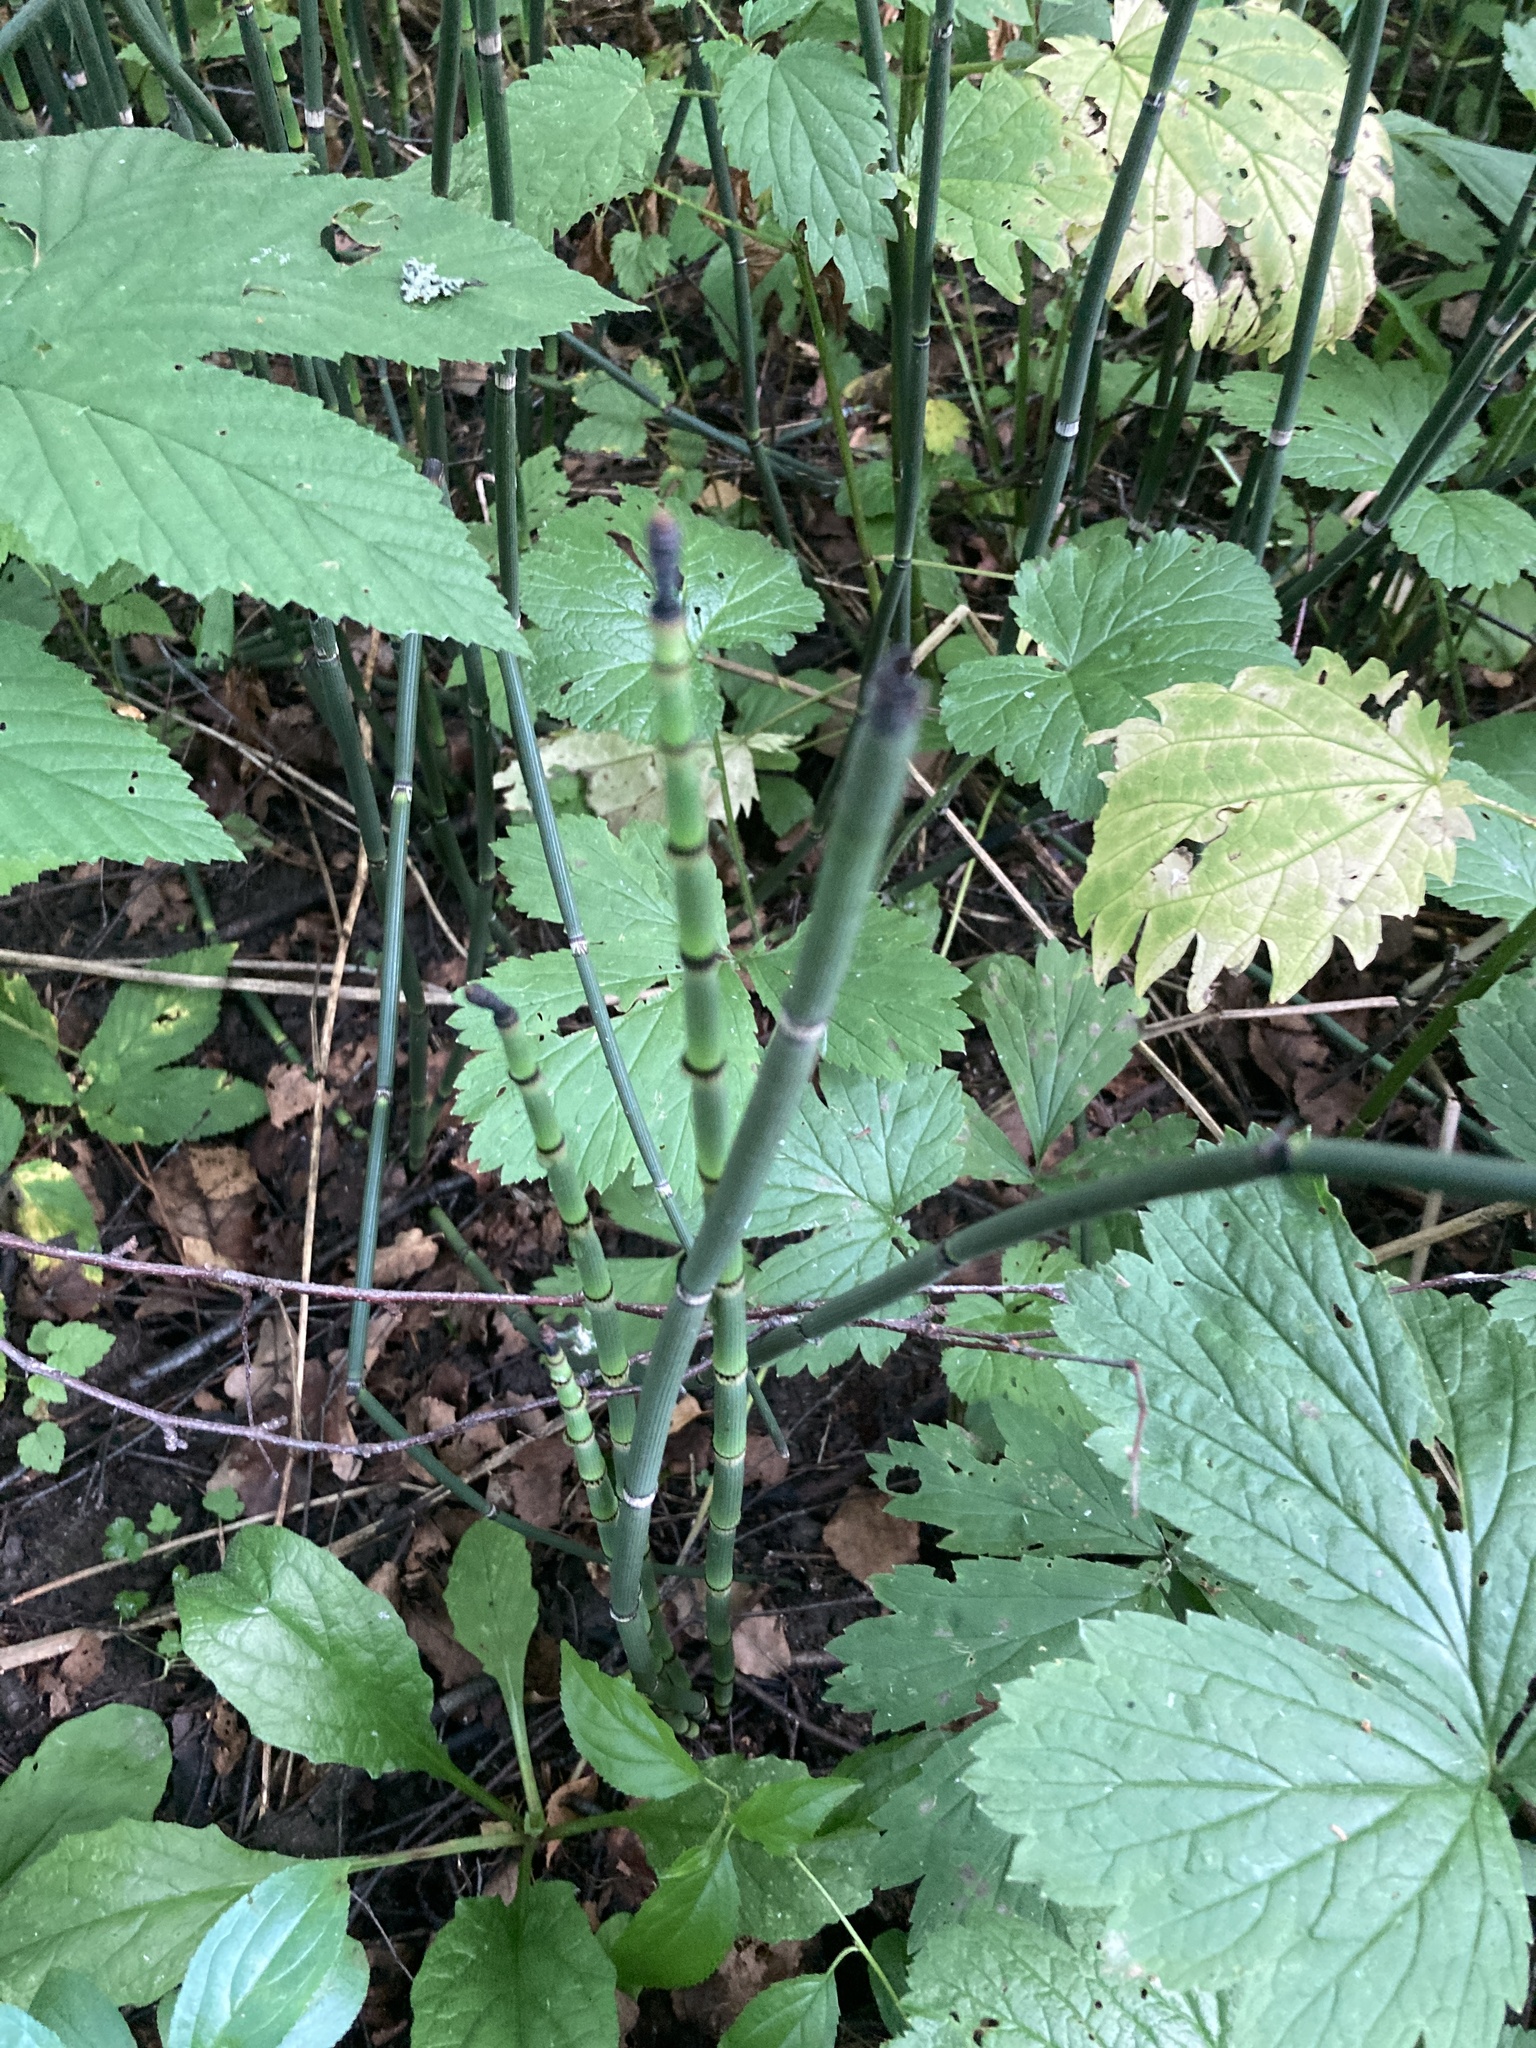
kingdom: Plantae
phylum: Tracheophyta
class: Polypodiopsida
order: Equisetales
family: Equisetaceae
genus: Equisetum
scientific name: Equisetum hyemale
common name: Rough horsetail
